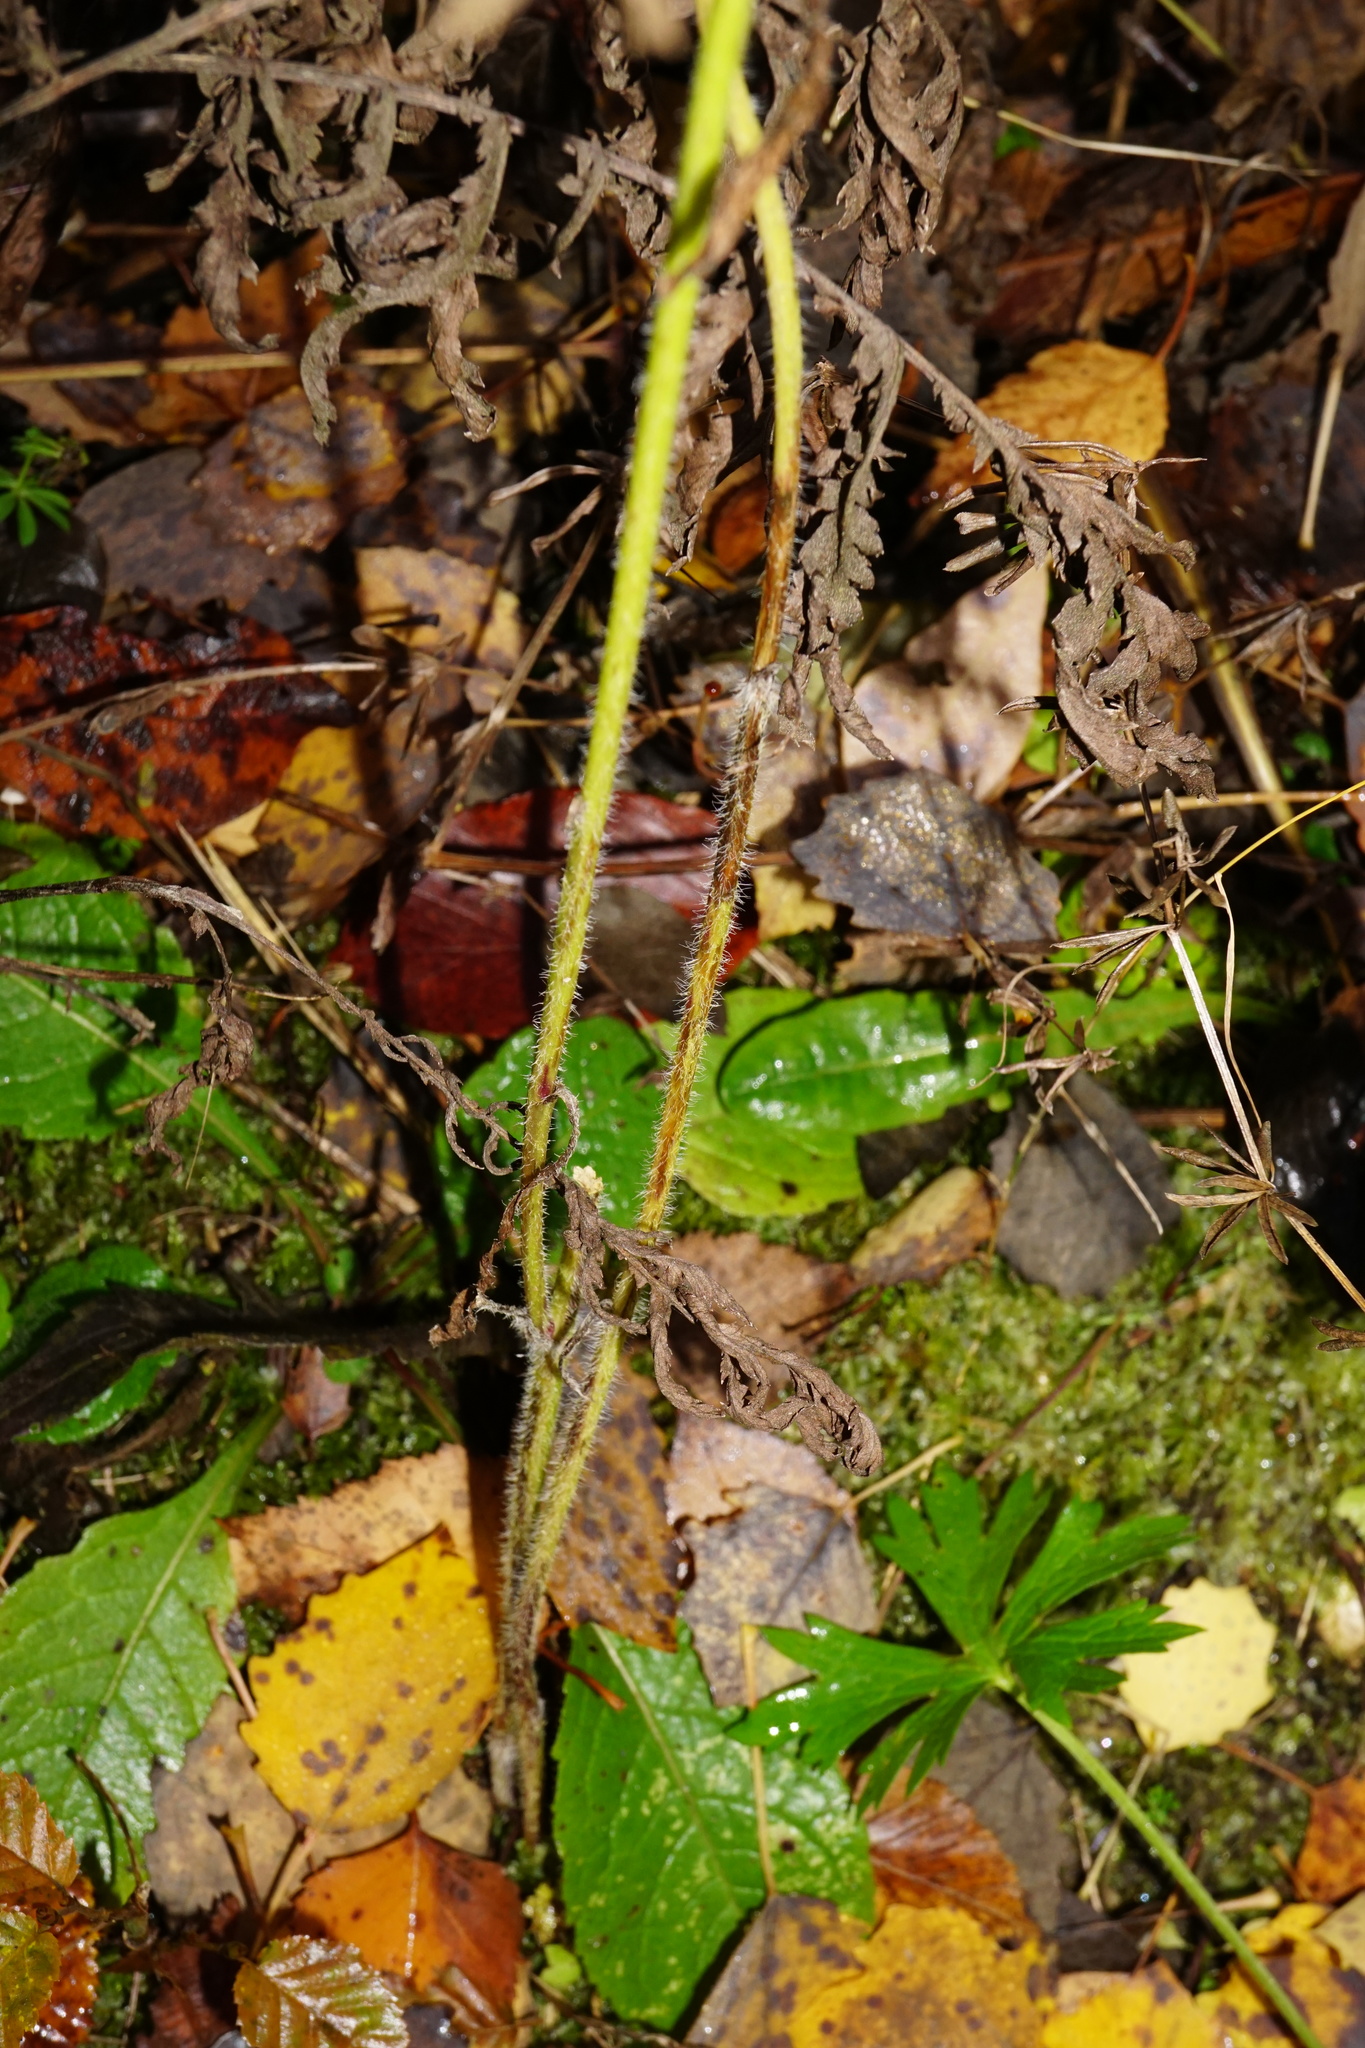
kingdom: Plantae
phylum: Tracheophyta
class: Magnoliopsida
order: Asterales
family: Asteraceae
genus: Erigeron
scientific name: Erigeron annuus
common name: Tall fleabane
